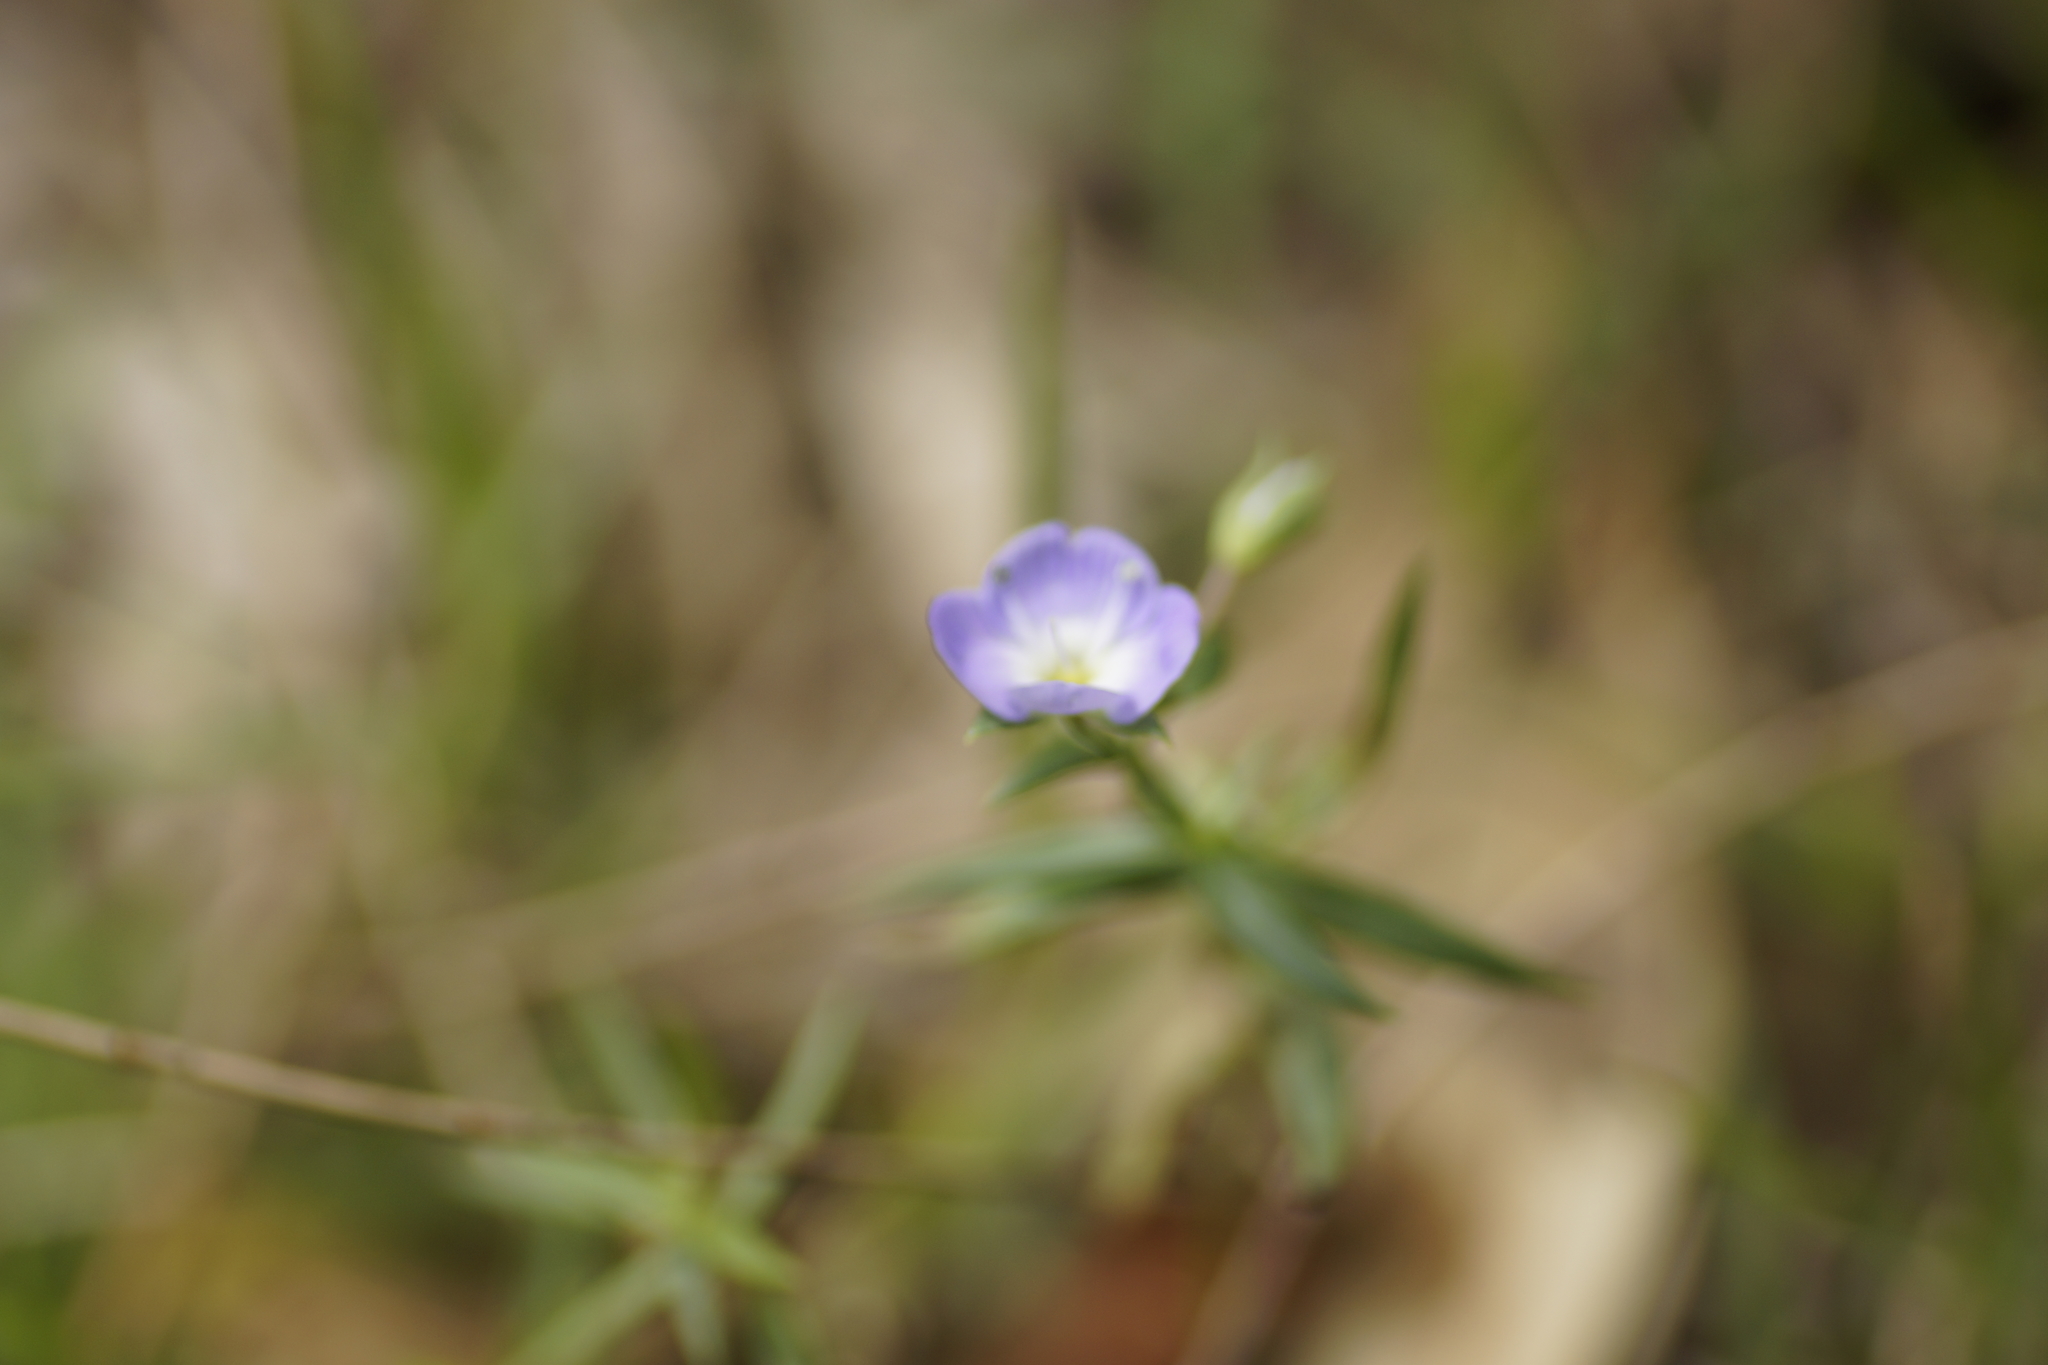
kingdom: Plantae
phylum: Tracheophyta
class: Magnoliopsida
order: Lamiales
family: Plantaginaceae
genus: Veronica
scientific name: Veronica gracilis
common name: Slender speedwell
